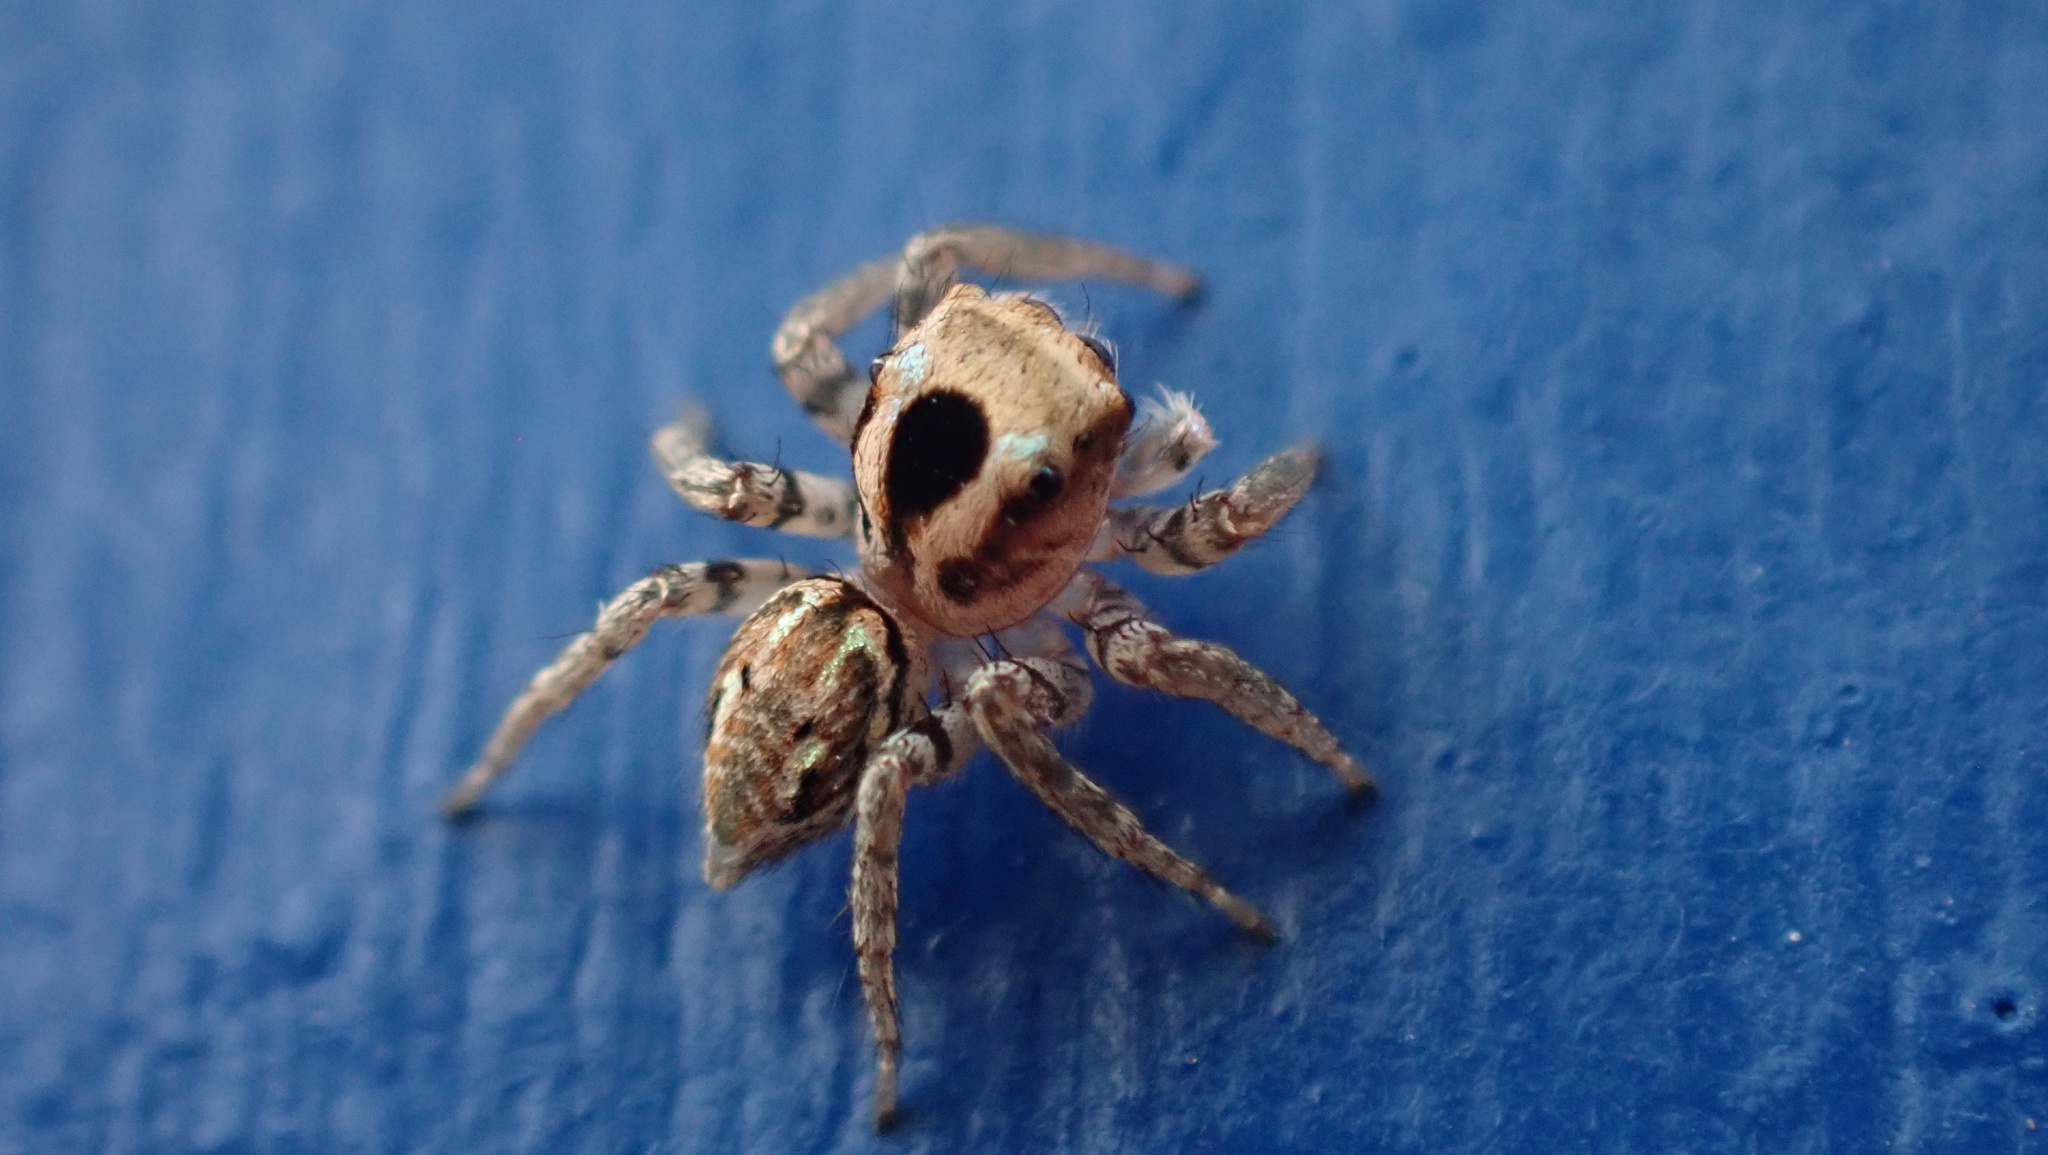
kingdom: Animalia
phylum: Arthropoda
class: Arachnida
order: Araneae
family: Salticidae
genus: Anasaitis
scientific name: Anasaitis banksi
